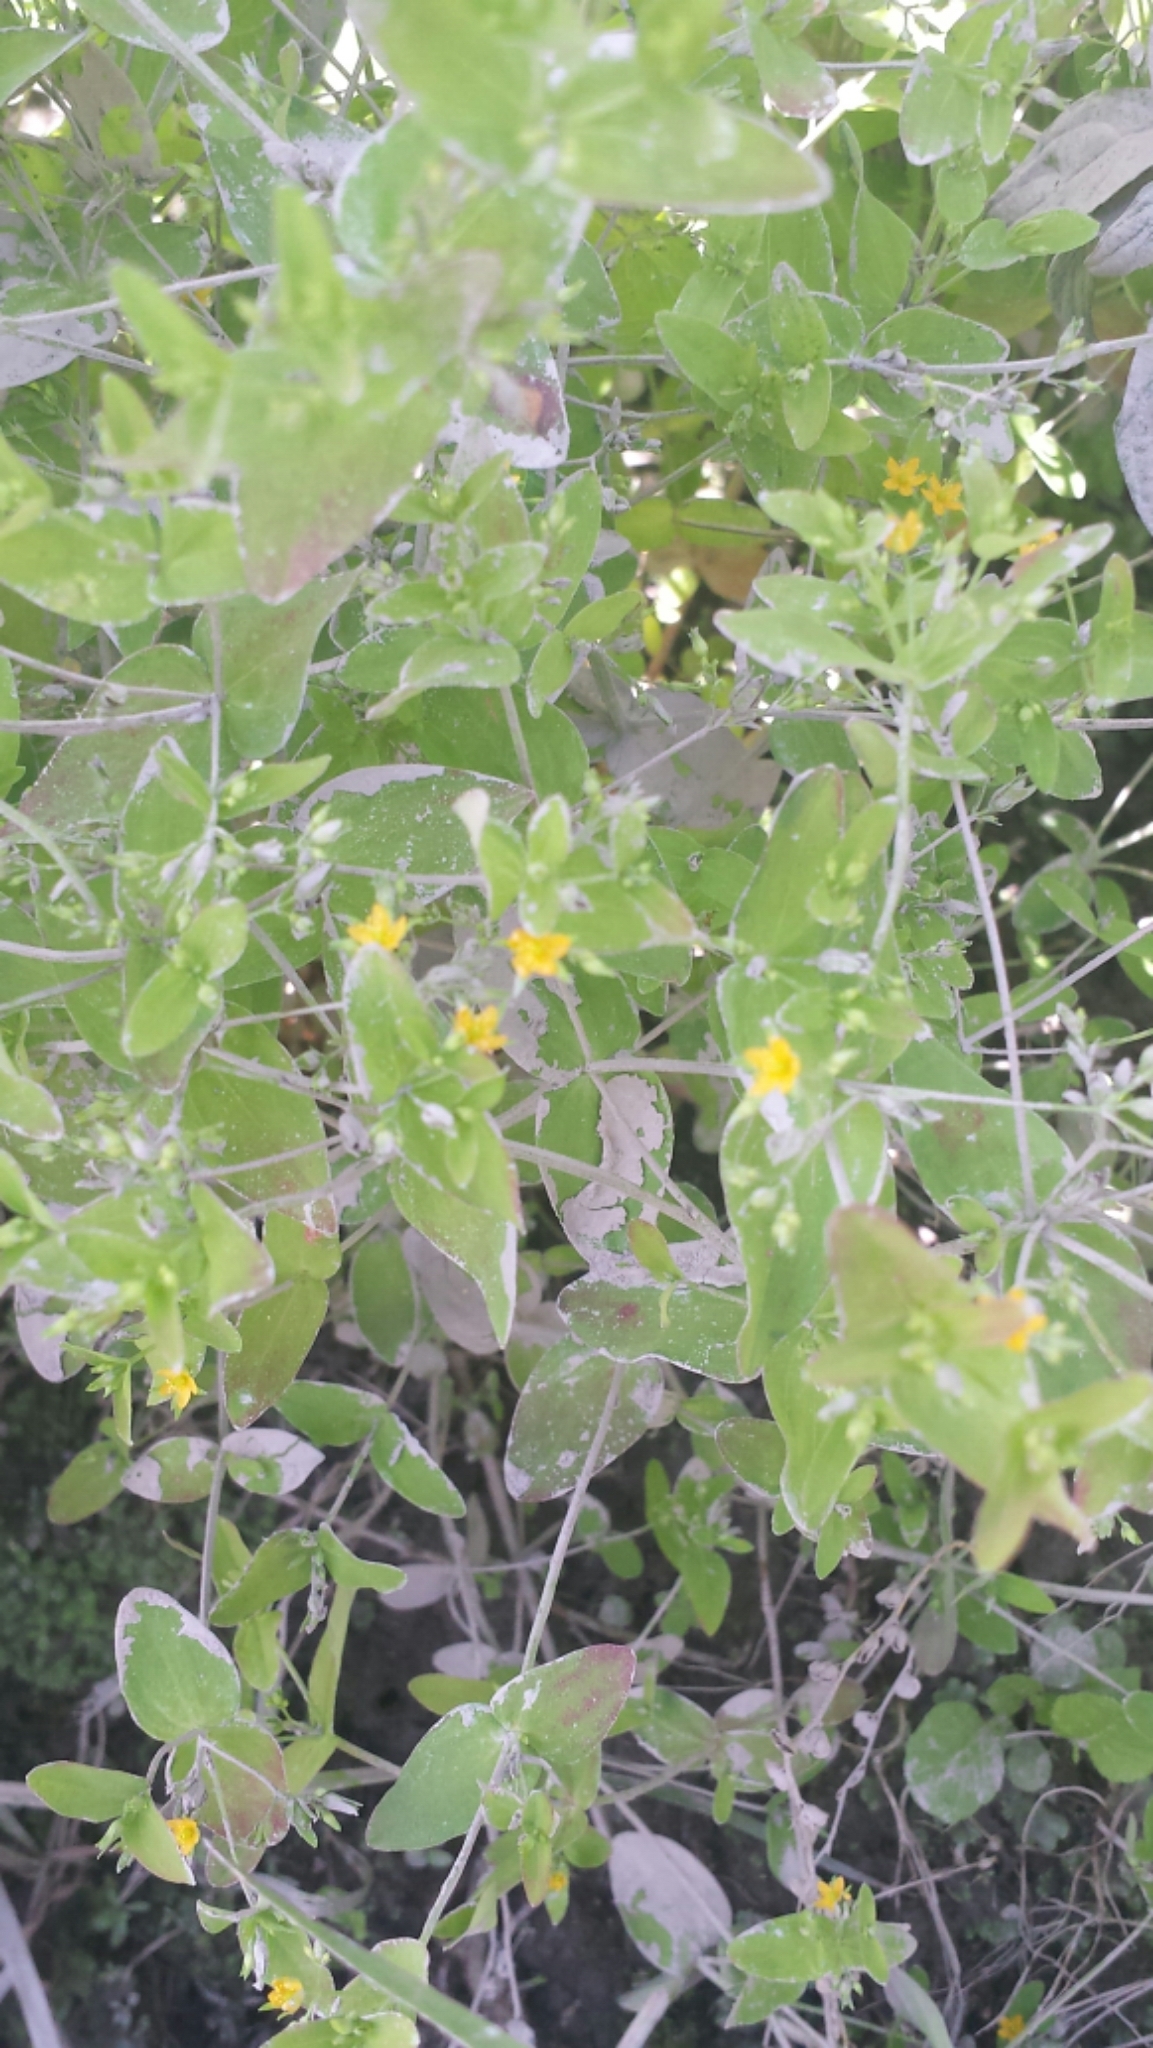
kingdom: Plantae
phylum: Tracheophyta
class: Magnoliopsida
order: Malpighiales
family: Hypericaceae
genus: Hypericum
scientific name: Hypericum mutilum
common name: Dwarf st. john's-wort
